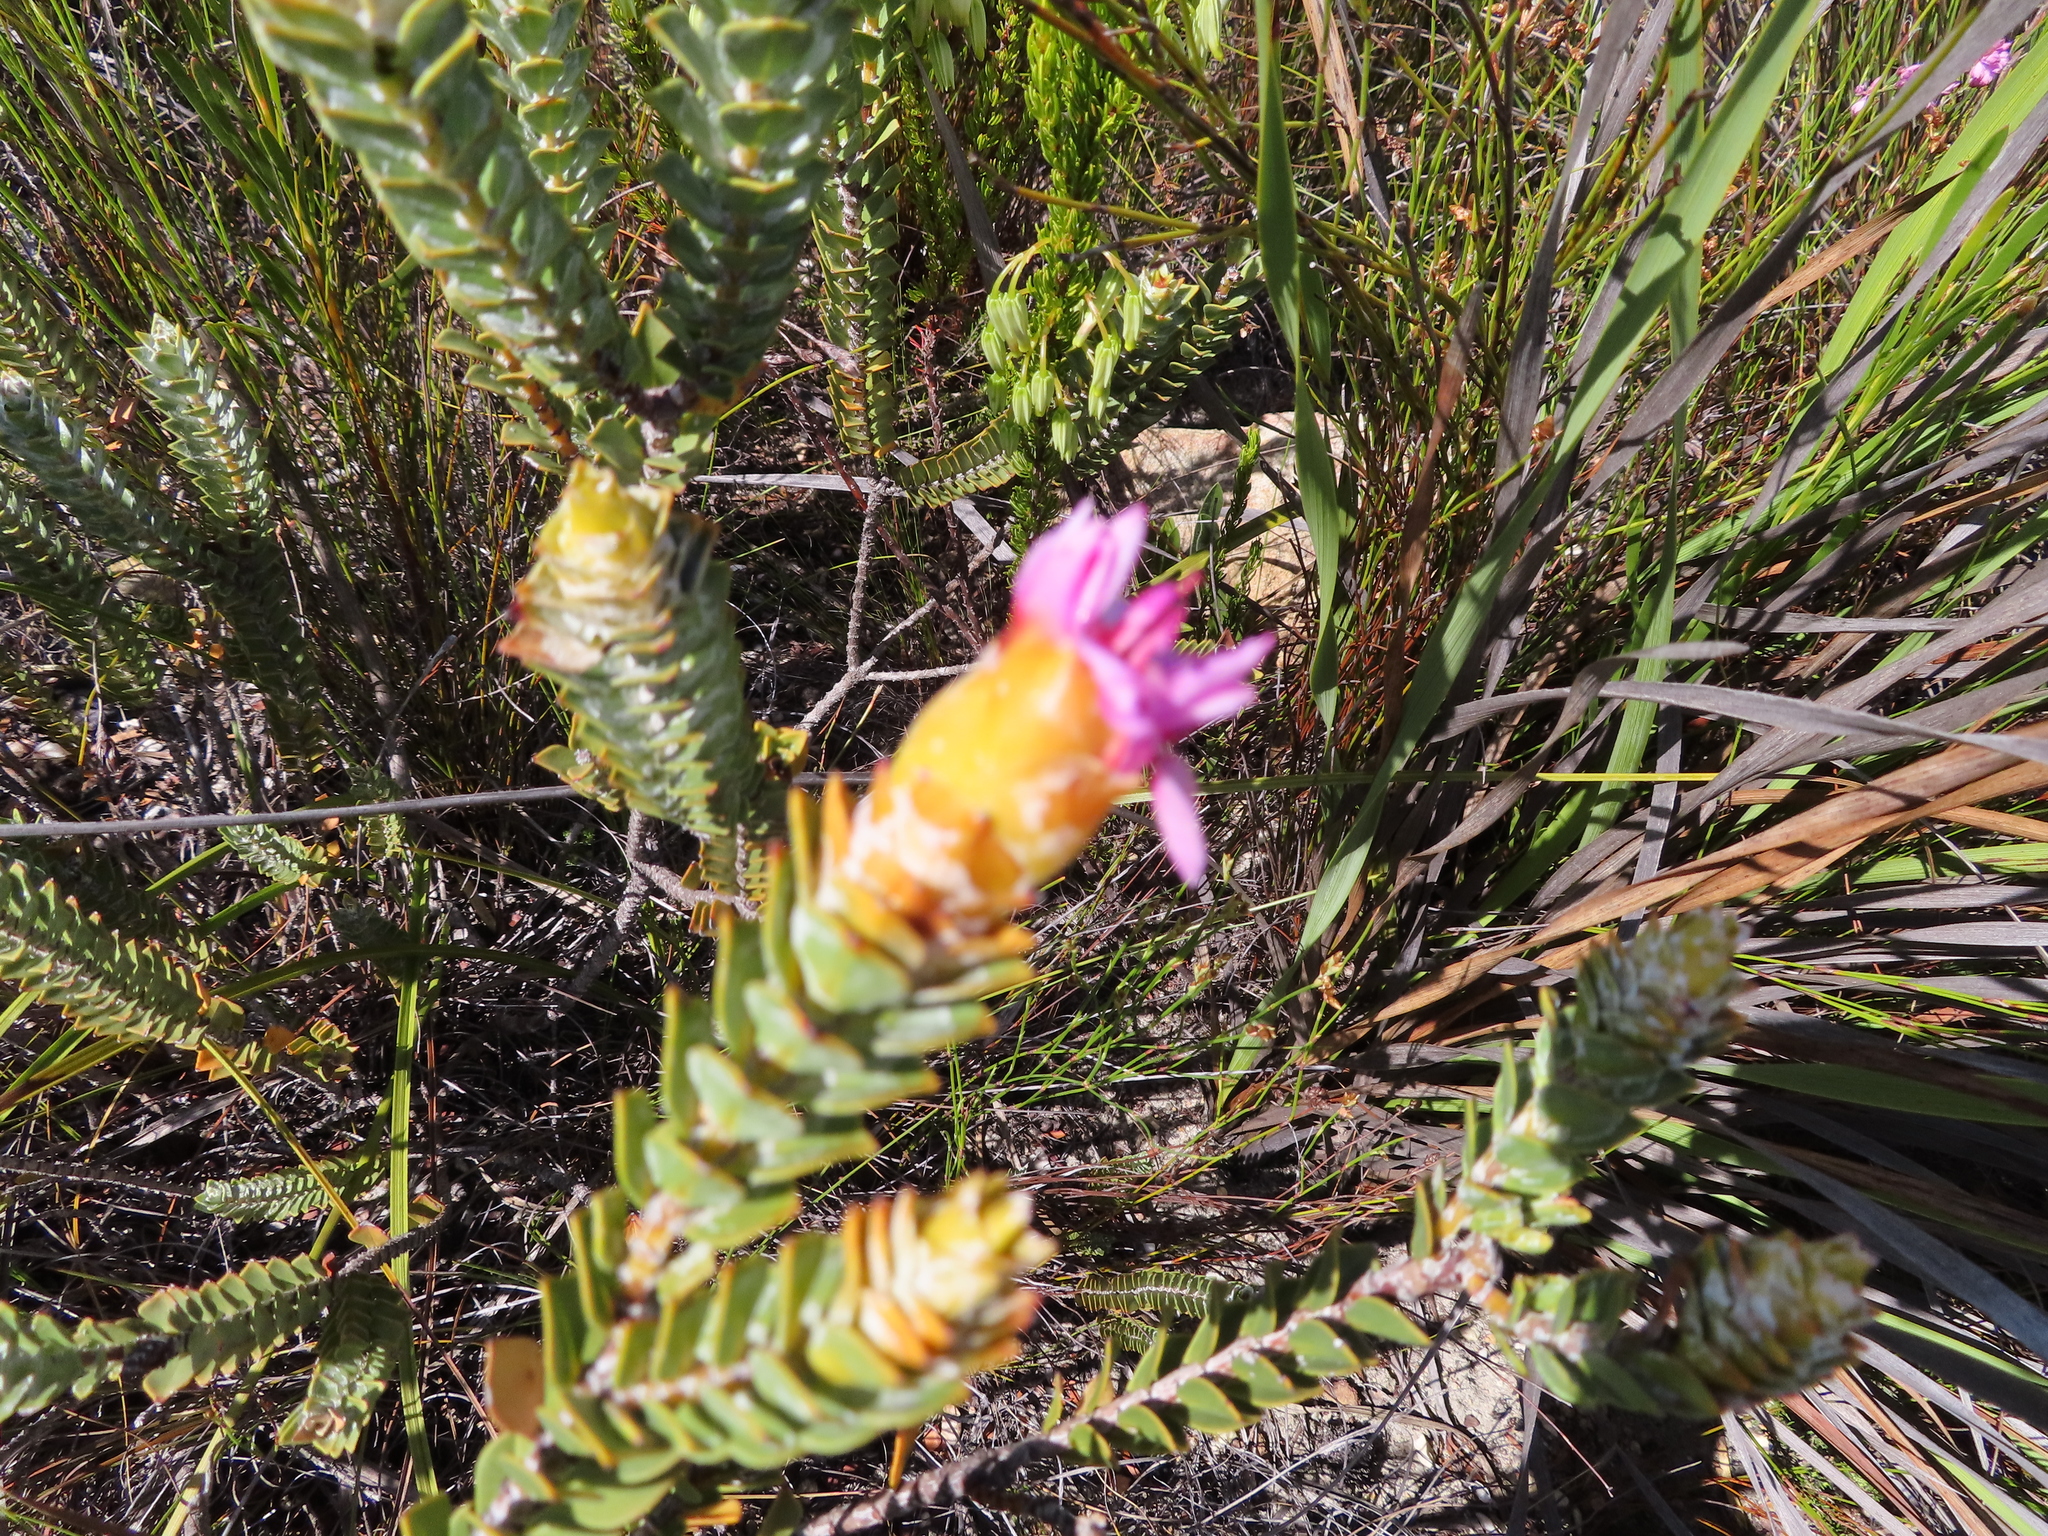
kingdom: Plantae
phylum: Tracheophyta
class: Magnoliopsida
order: Myrtales
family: Penaeaceae
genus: Saltera
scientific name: Saltera sarcocolla
